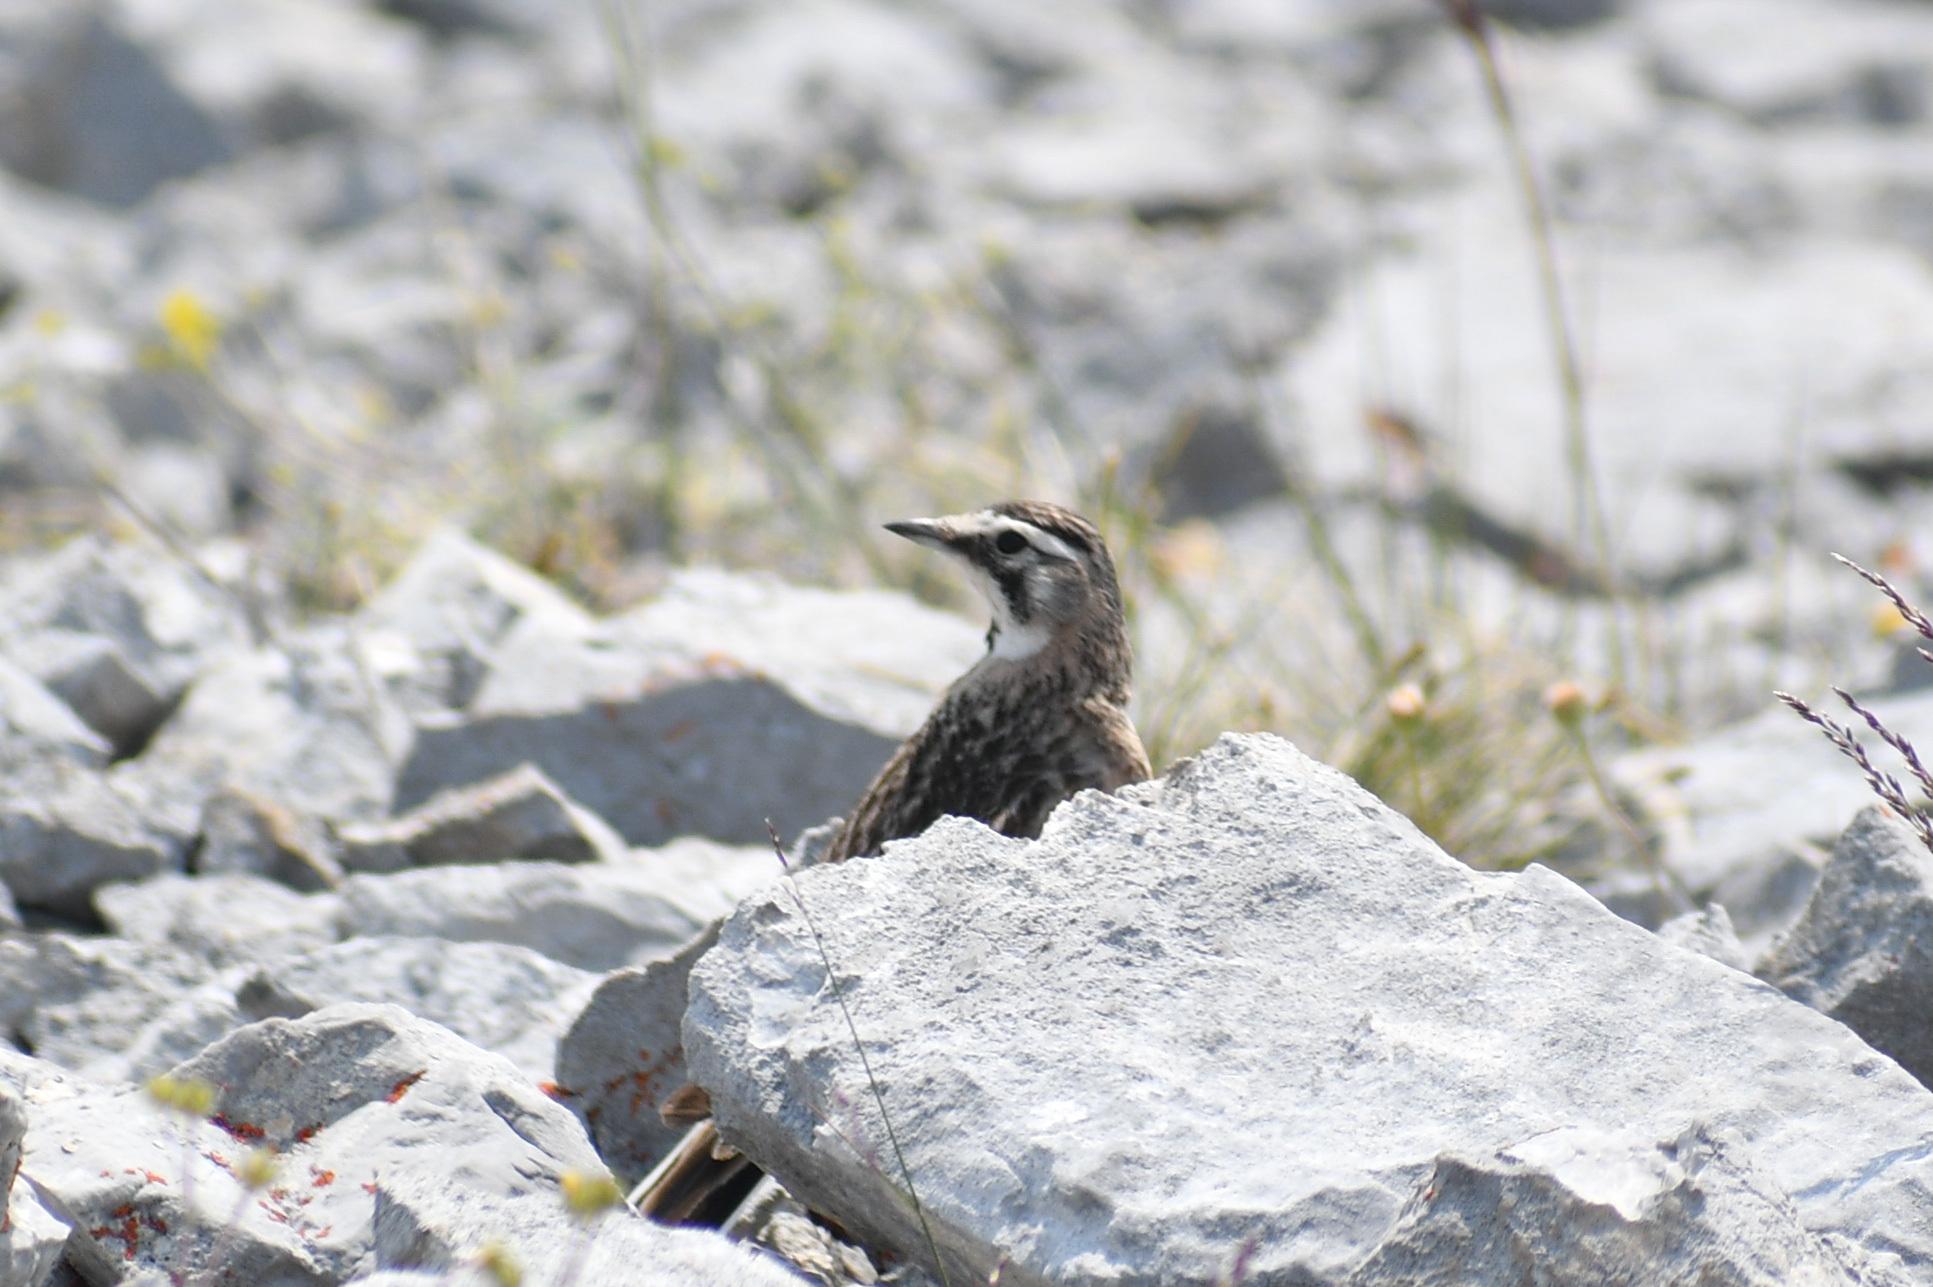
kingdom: Animalia
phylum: Chordata
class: Aves
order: Passeriformes
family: Alaudidae
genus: Eremophila
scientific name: Eremophila alpestris
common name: Horned lark
